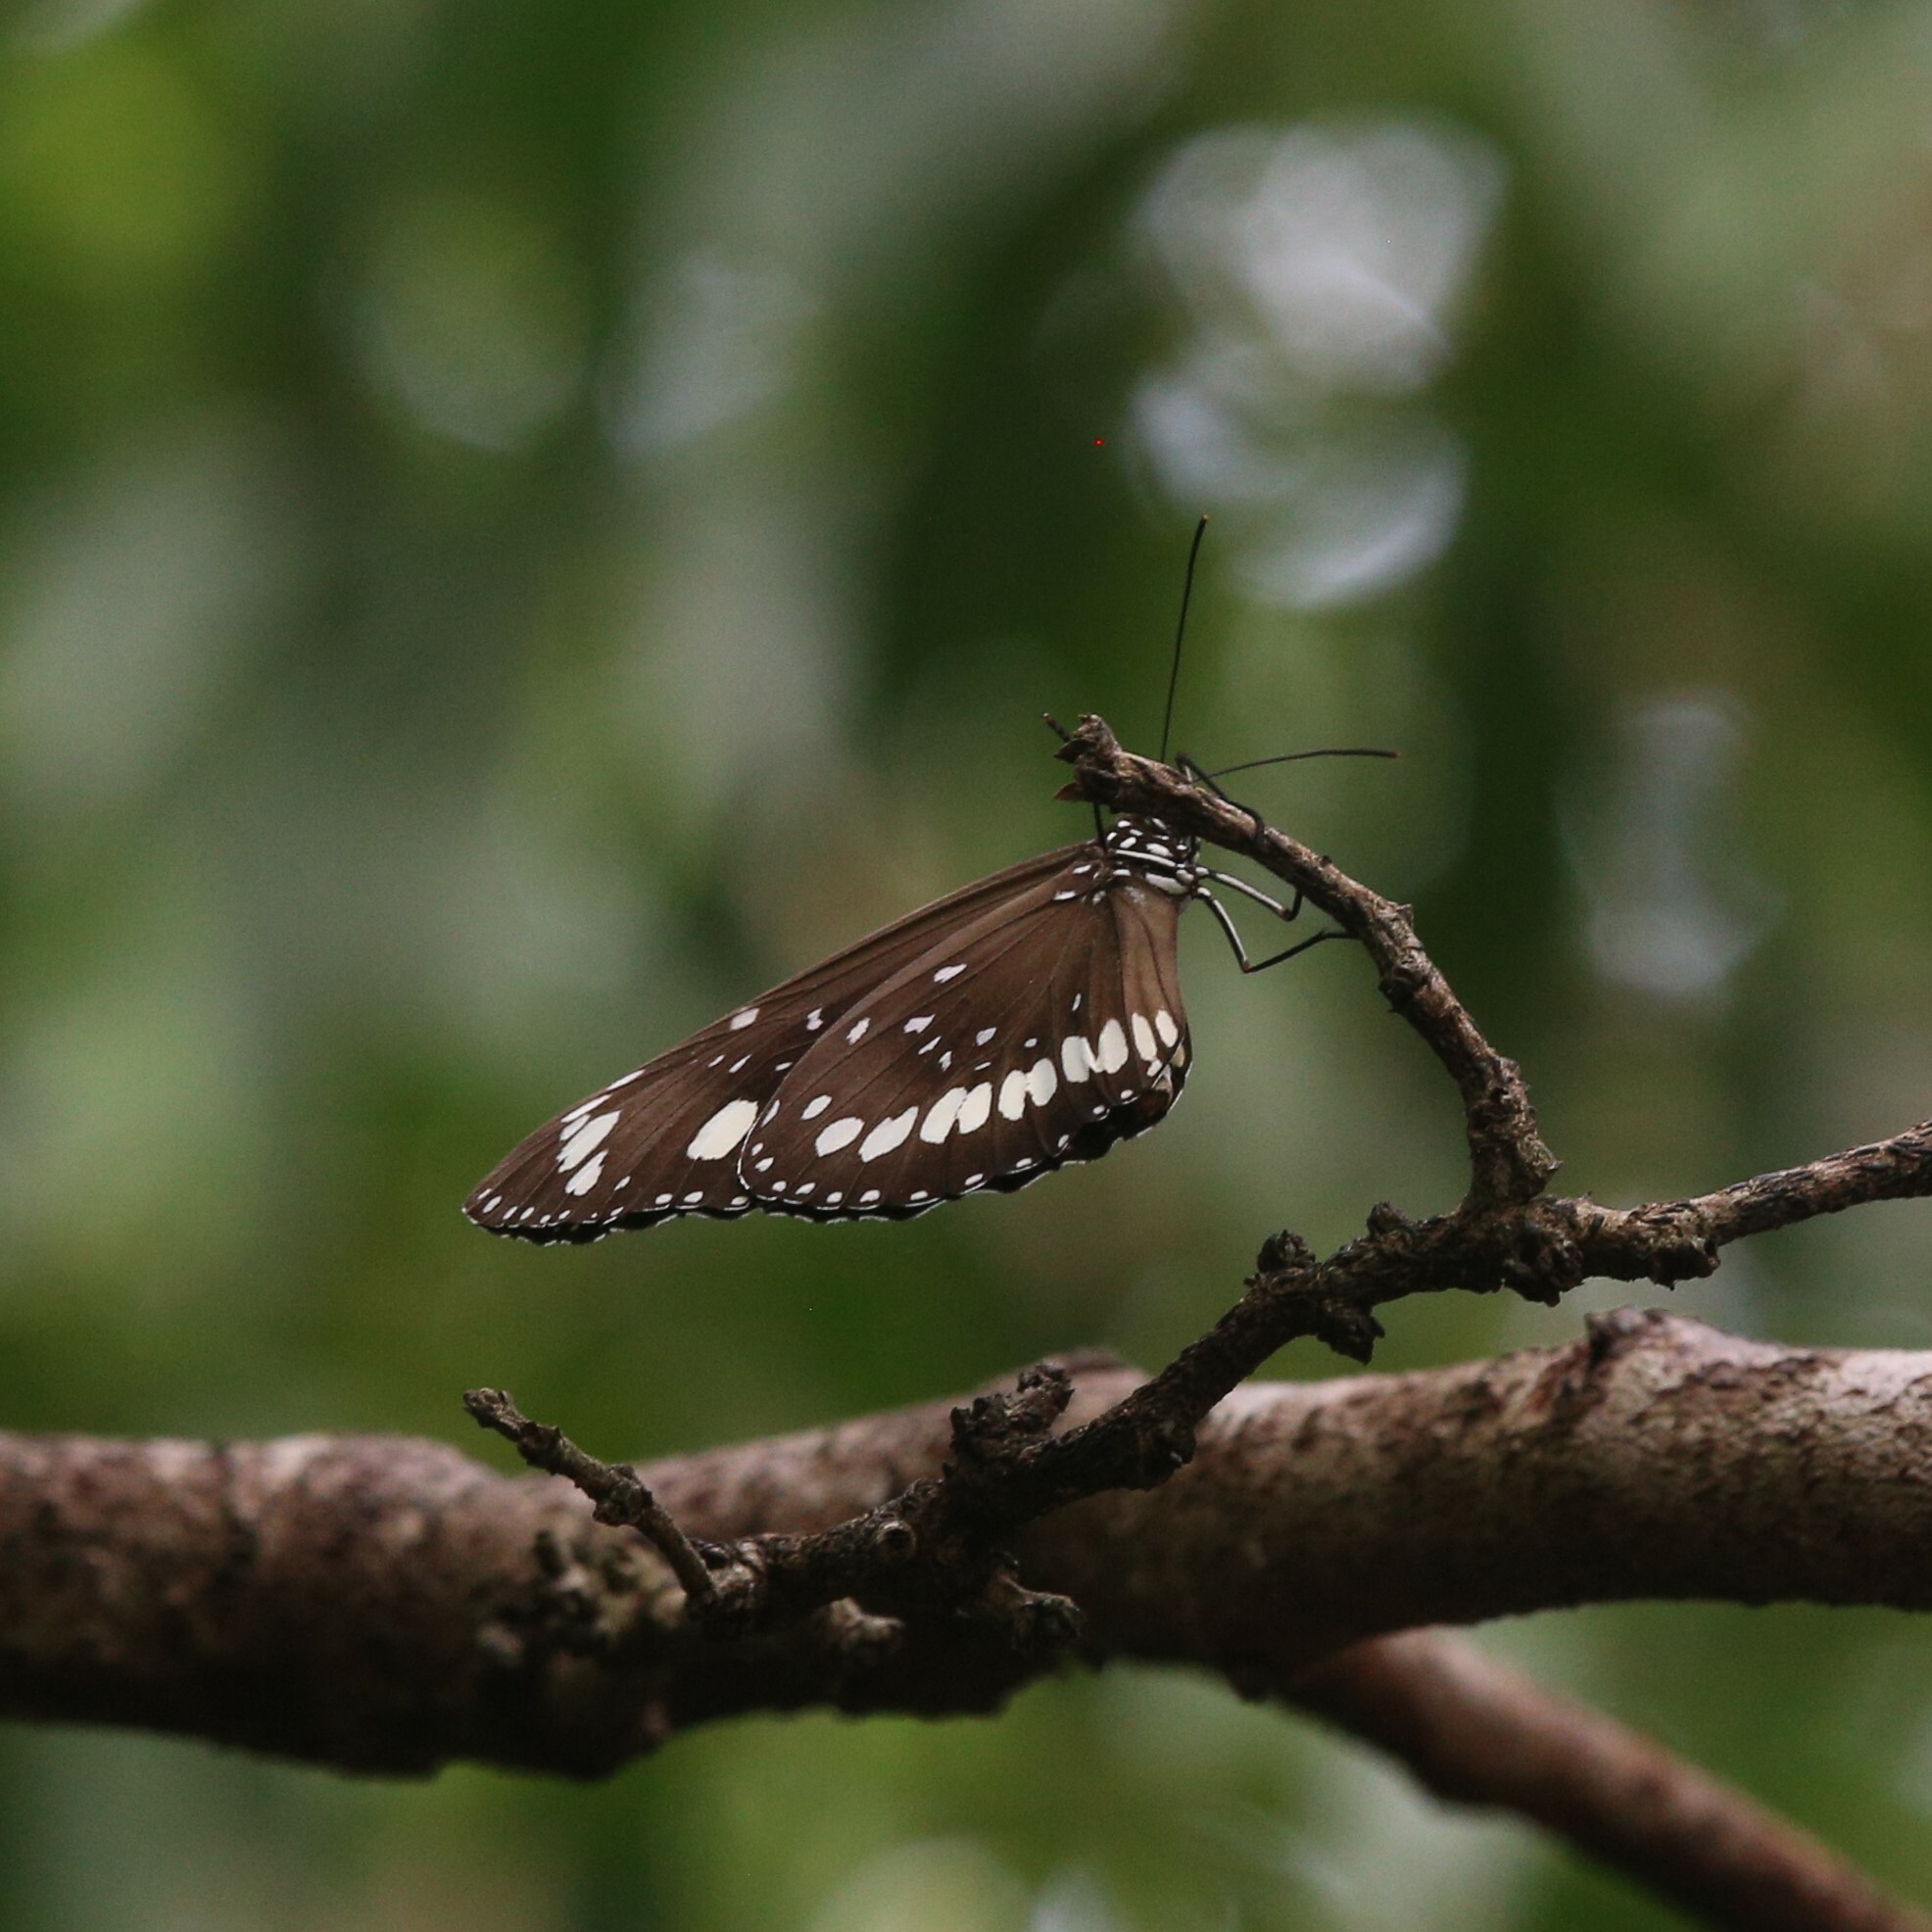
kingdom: Animalia
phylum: Arthropoda
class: Insecta
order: Lepidoptera
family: Nymphalidae
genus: Euploea
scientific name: Euploea core
